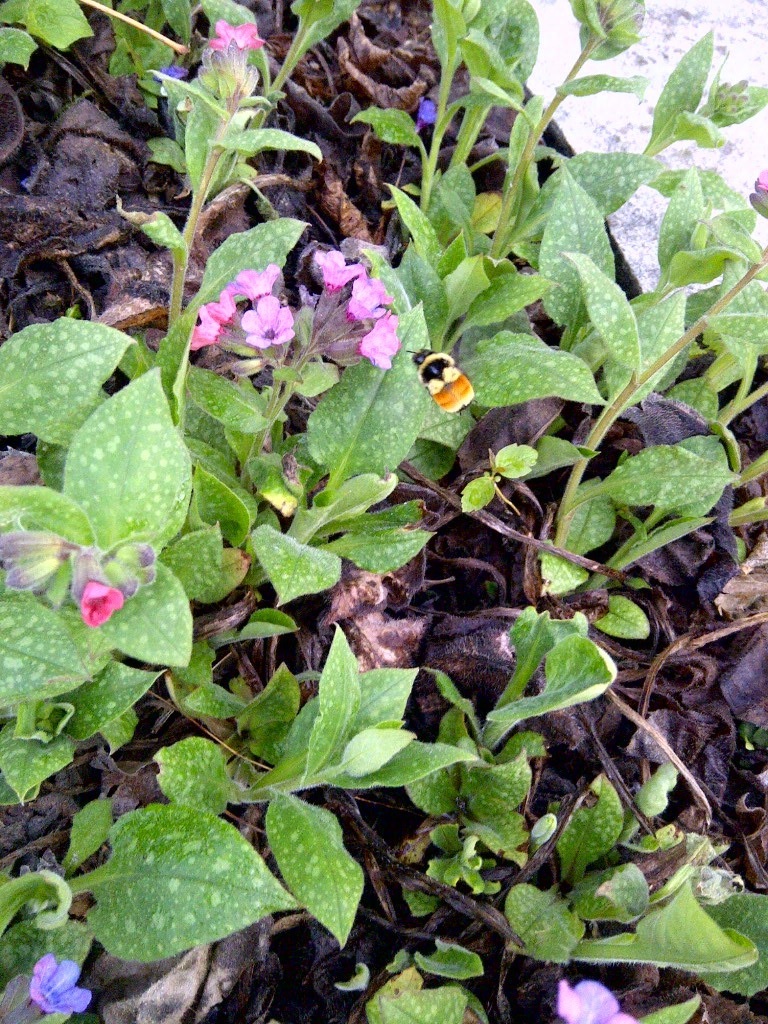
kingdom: Animalia
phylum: Arthropoda
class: Insecta
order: Hymenoptera
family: Apidae
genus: Bombus
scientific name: Bombus ternarius
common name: Tri-colored bumble bee
